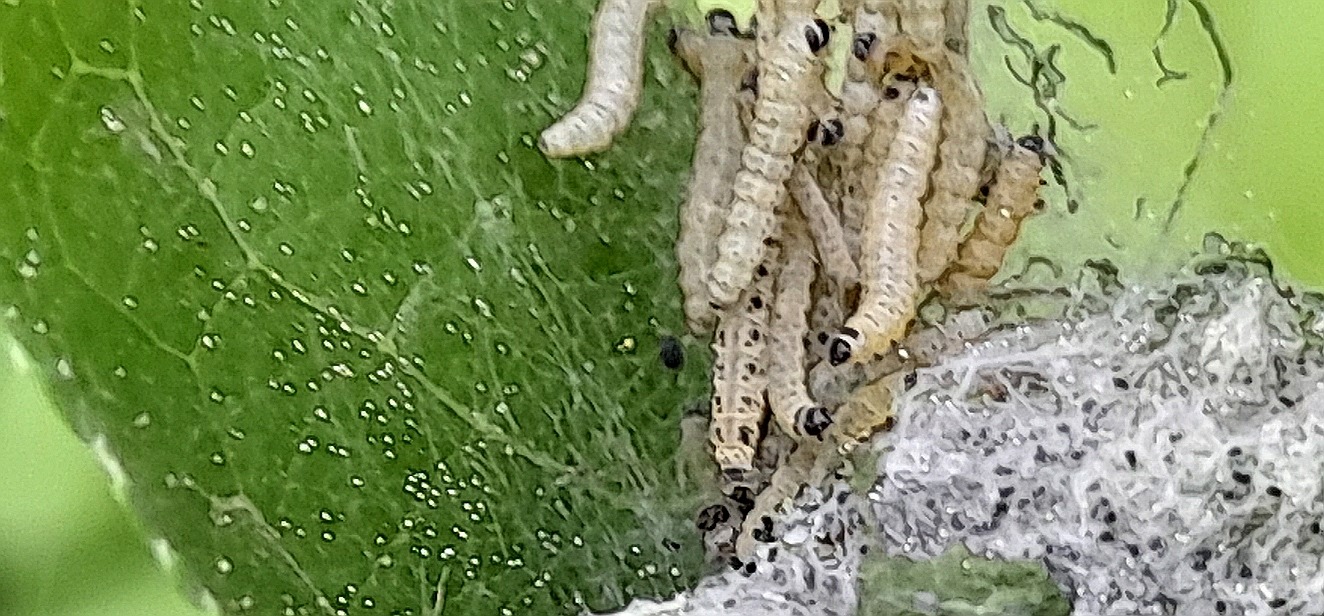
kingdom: Animalia
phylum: Arthropoda
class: Insecta
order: Lepidoptera
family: Yponomeutidae
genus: Yponomeuta
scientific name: Yponomeuta cagnagellus
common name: Spindle ermine
